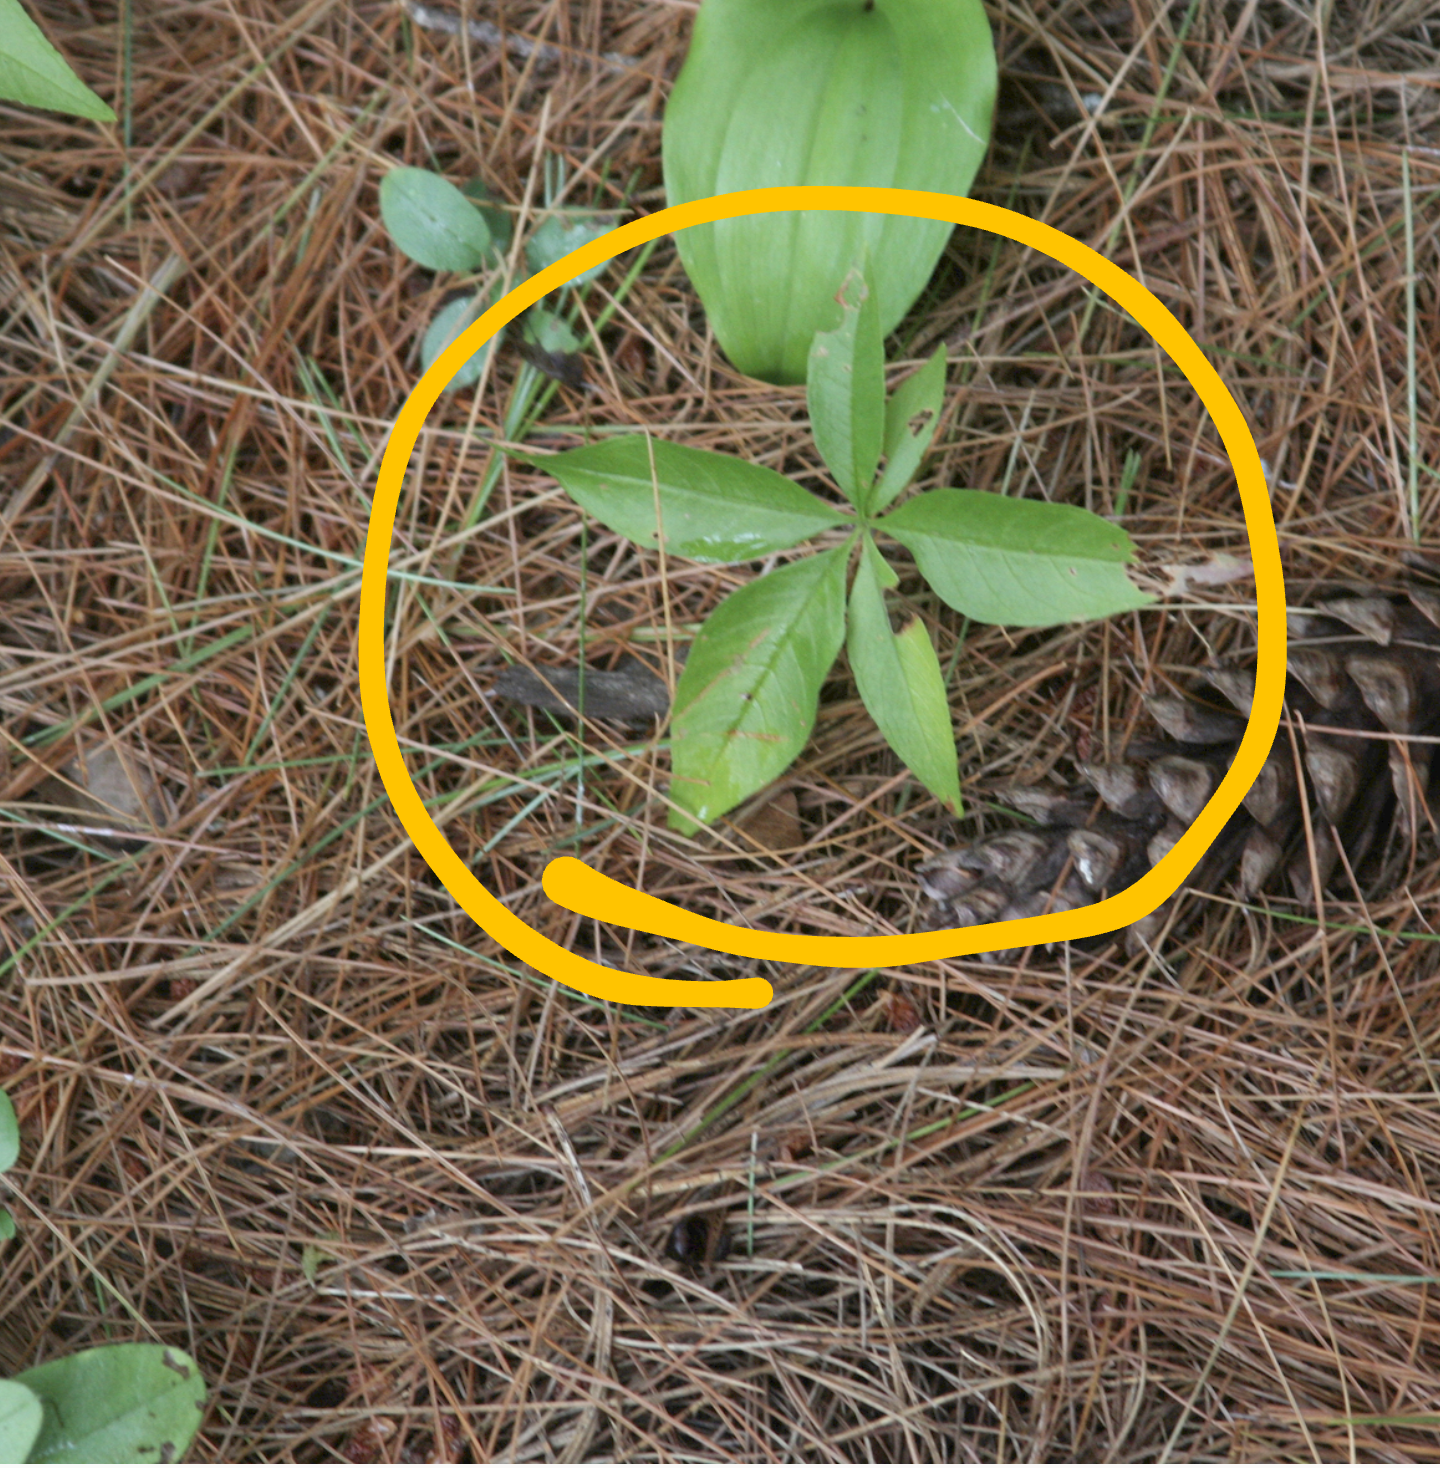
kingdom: Plantae
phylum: Tracheophyta
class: Magnoliopsida
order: Ericales
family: Primulaceae
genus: Lysimachia
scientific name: Lysimachia borealis
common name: American starflower
